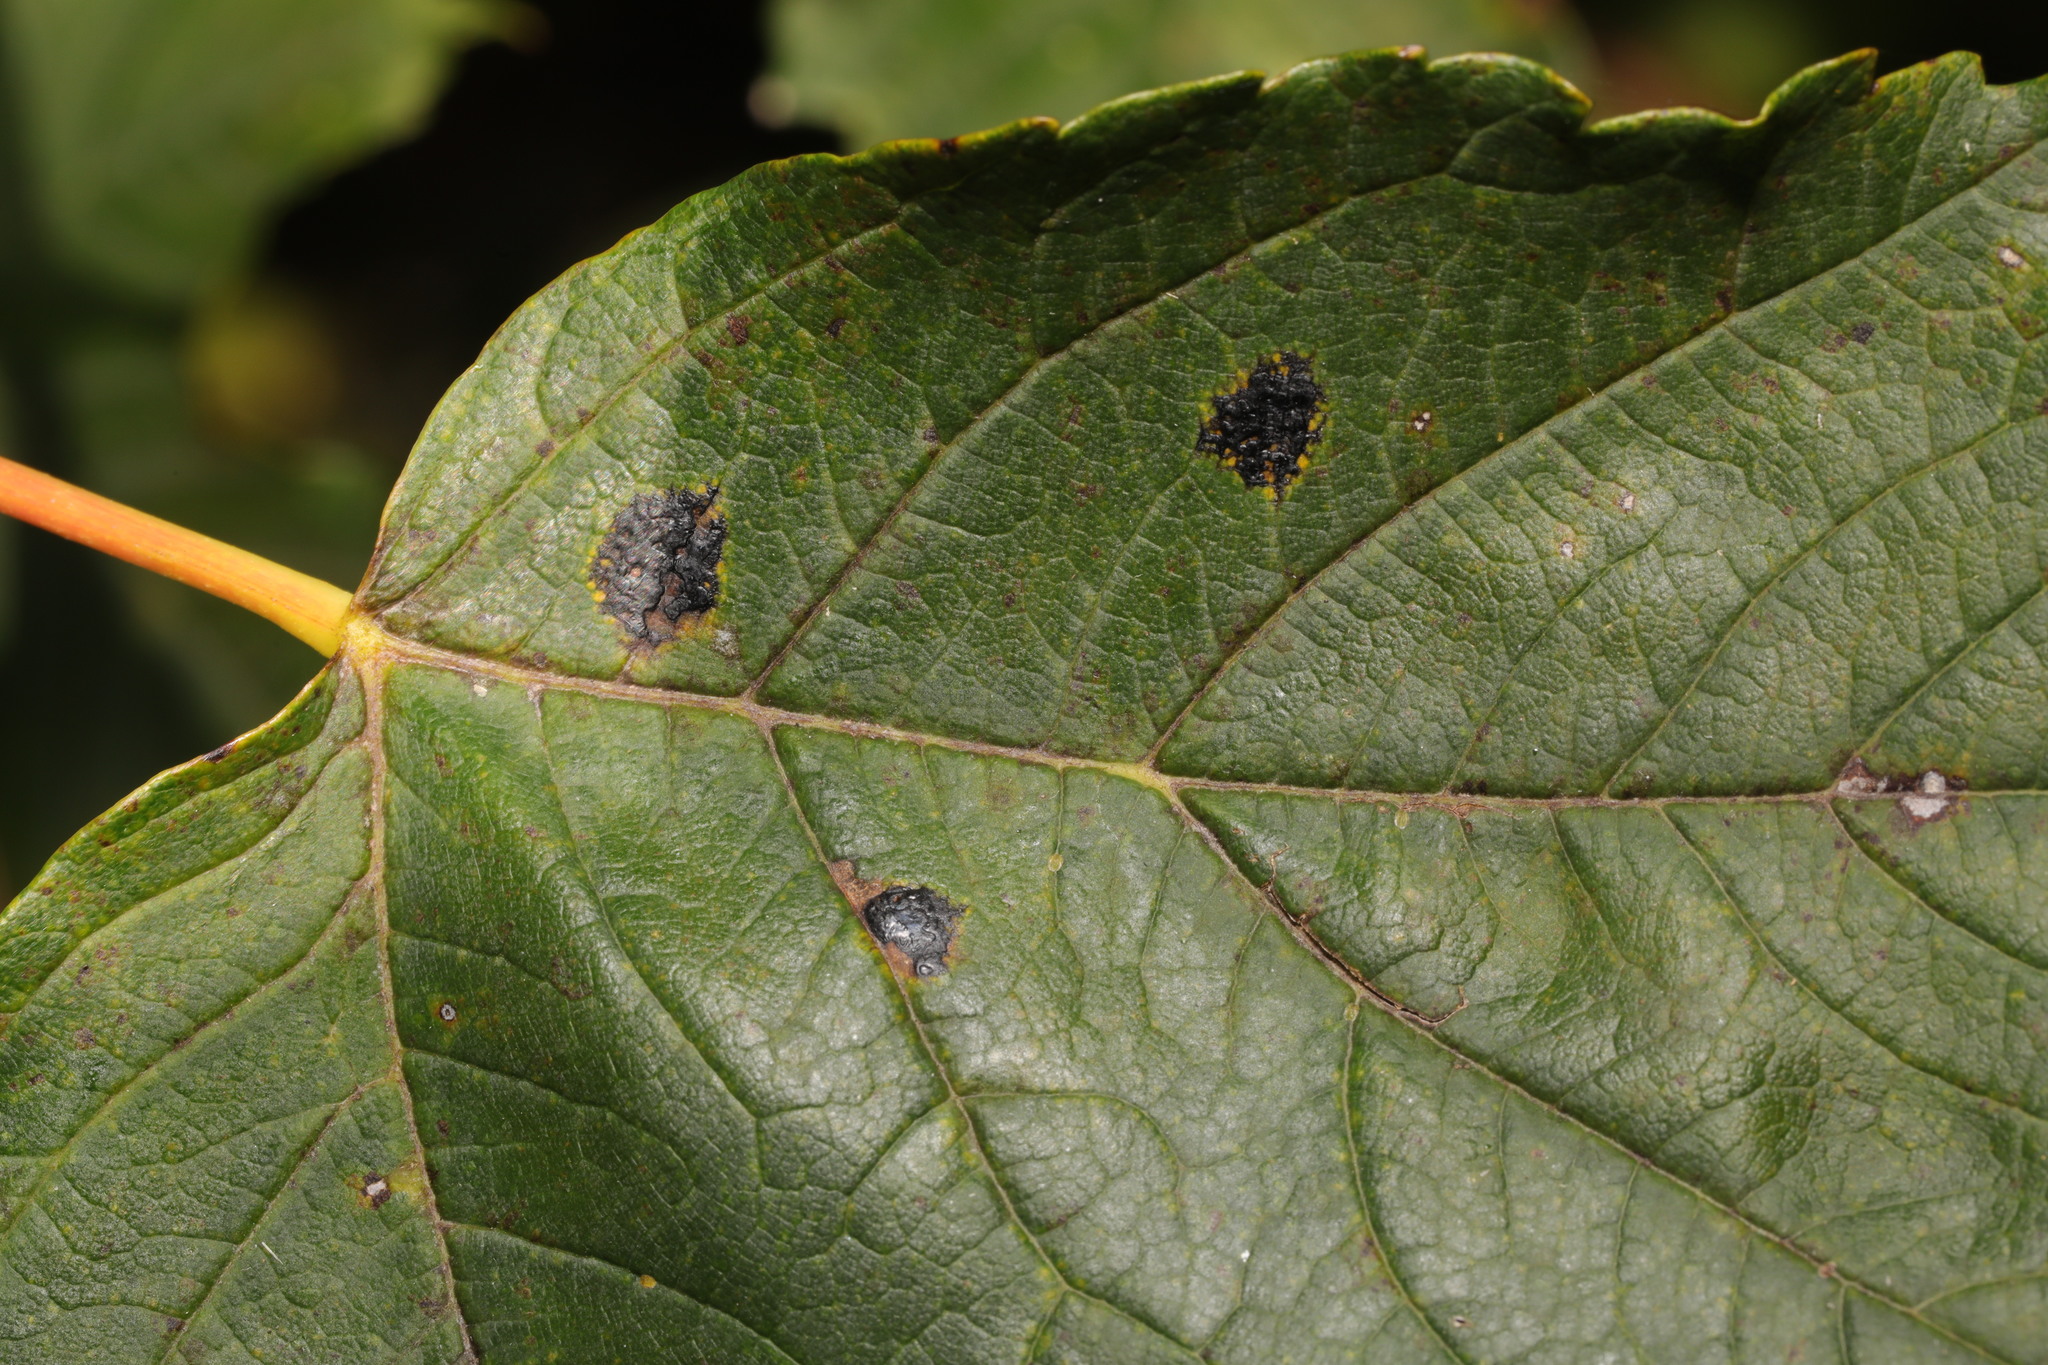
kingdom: Fungi
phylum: Ascomycota
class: Leotiomycetes
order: Rhytismatales
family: Rhytismataceae
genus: Rhytisma
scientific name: Rhytisma acerinum
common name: European tar spot
